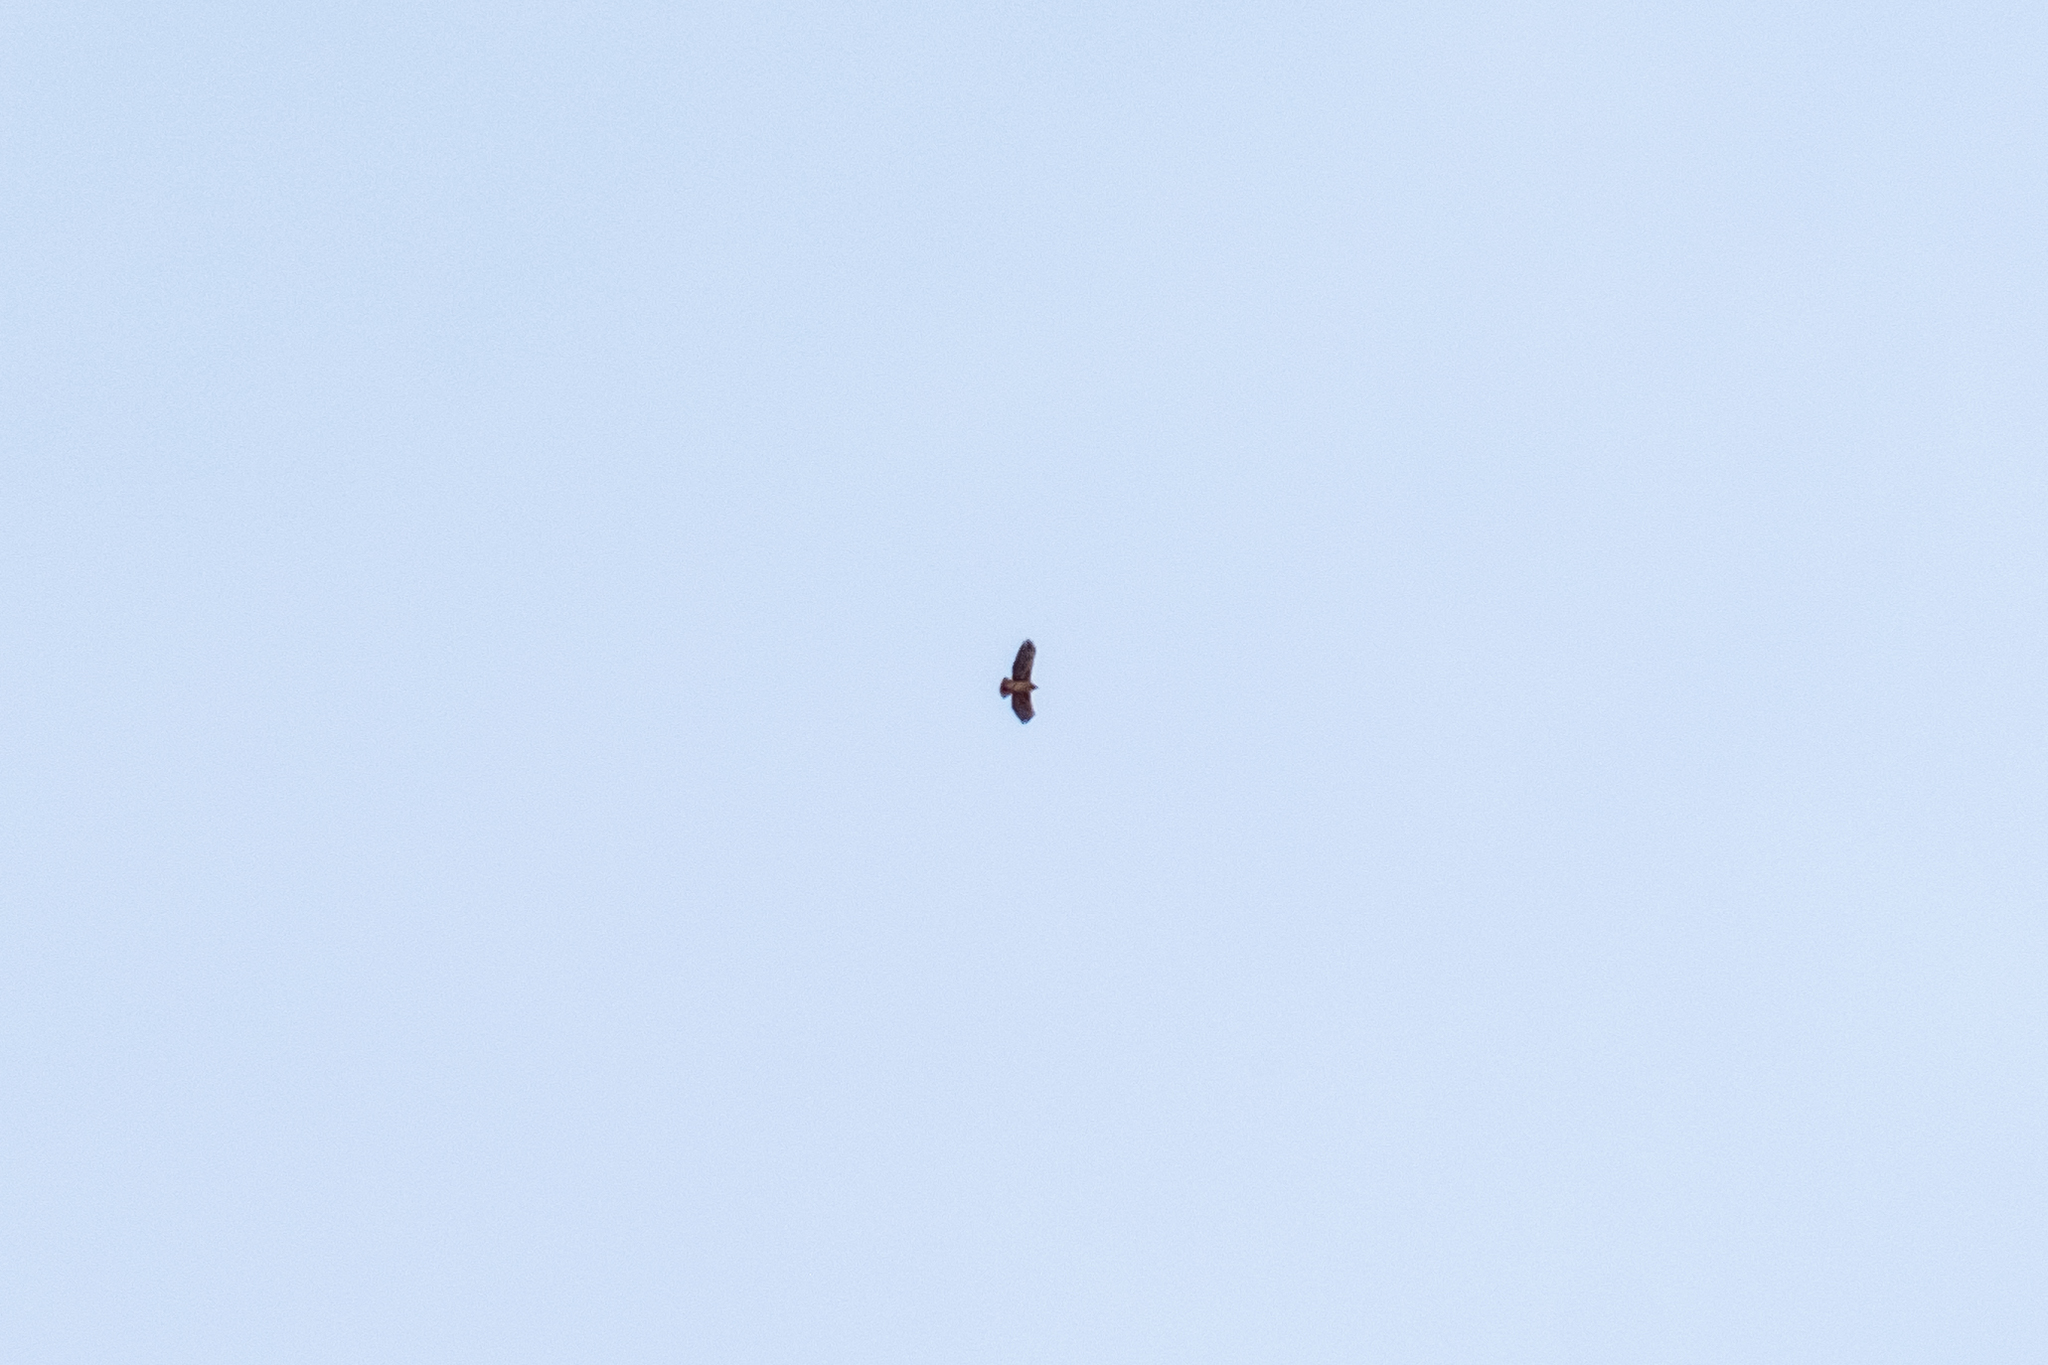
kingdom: Animalia
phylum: Chordata
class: Aves
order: Accipitriformes
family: Accipitridae
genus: Buteo
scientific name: Buteo jamaicensis
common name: Red-tailed hawk
